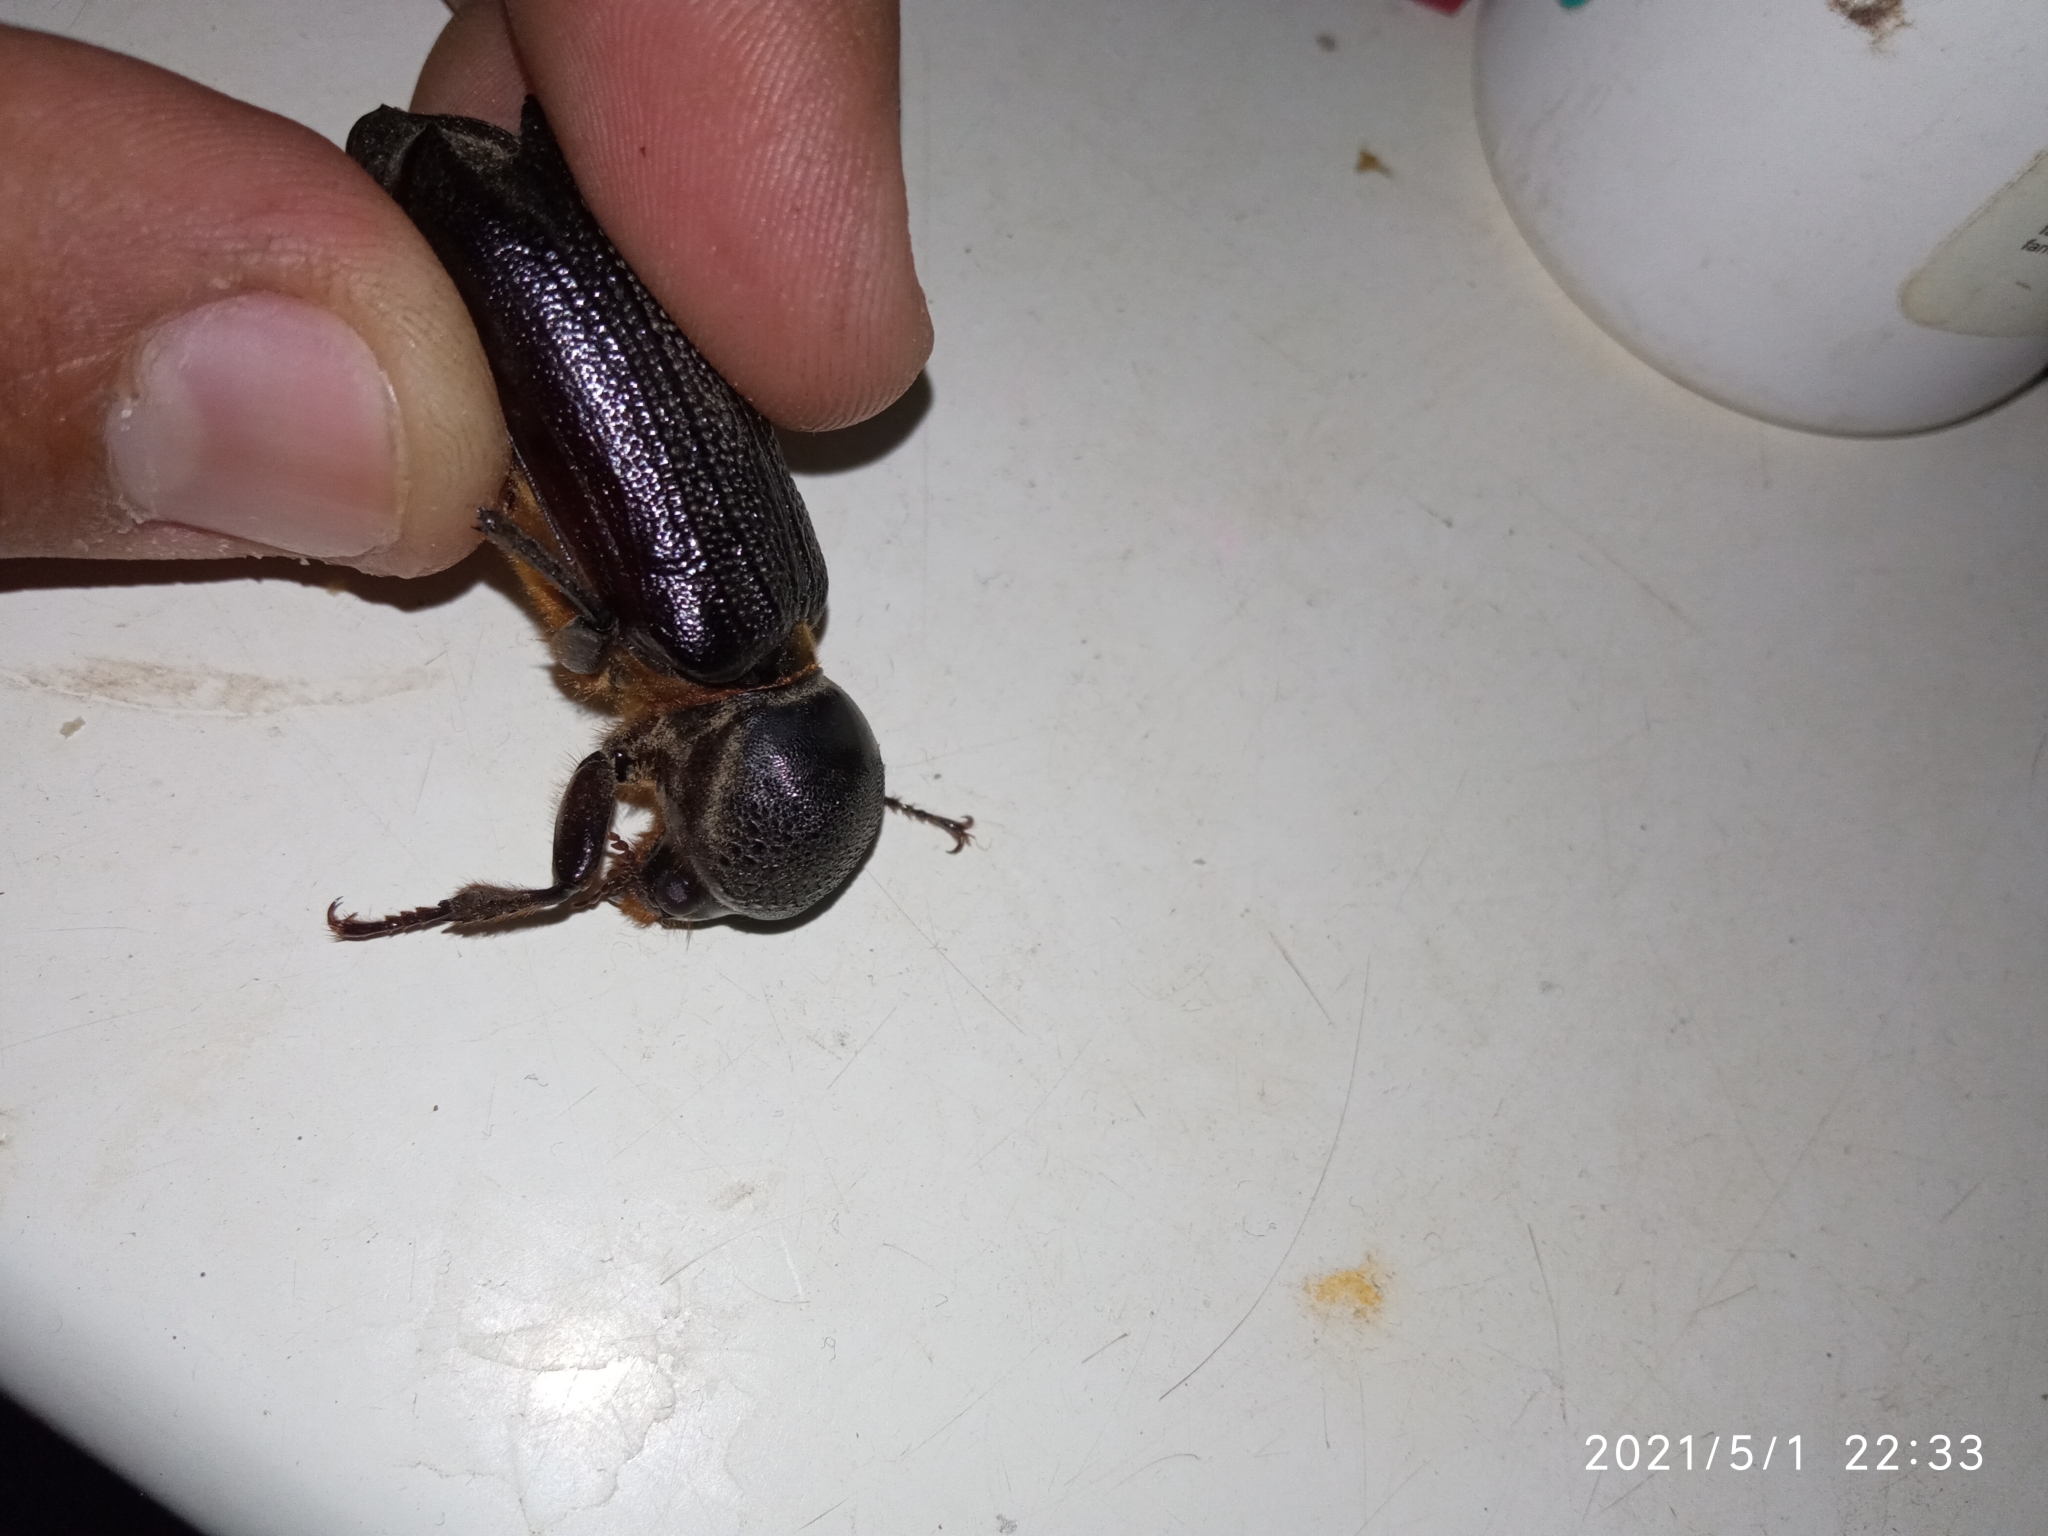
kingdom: Animalia
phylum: Arthropoda
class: Insecta
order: Coleoptera
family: Bostrichidae
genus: Dinapate
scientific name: Dinapate wrightii
